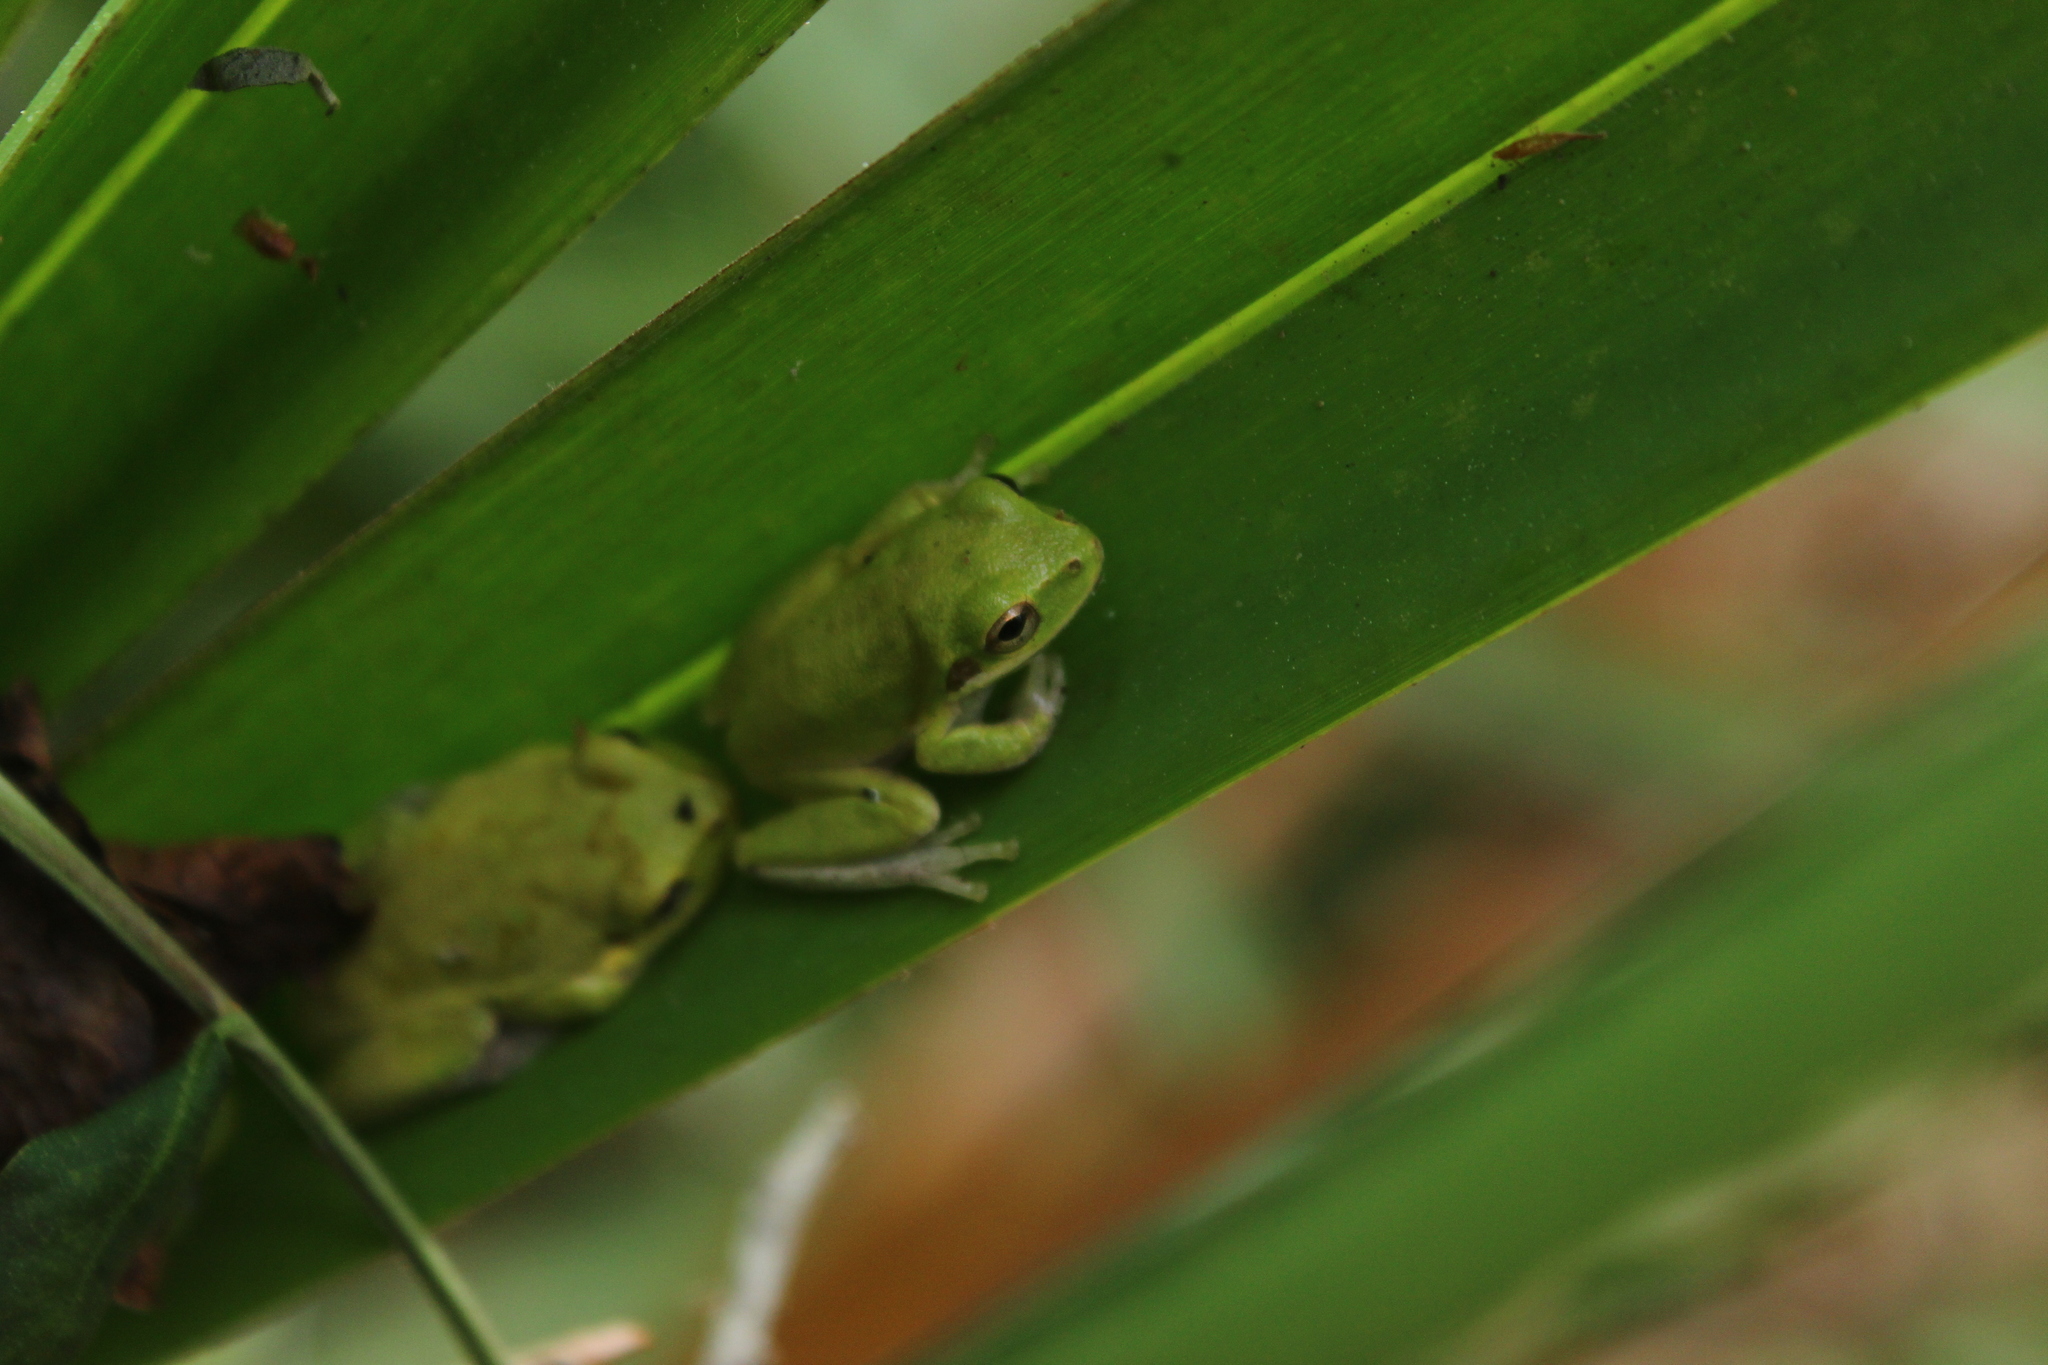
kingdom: Animalia
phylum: Chordata
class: Amphibia
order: Anura
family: Hylidae
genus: Dryophytes
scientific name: Dryophytes squirellus
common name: Squirrel treefrog
